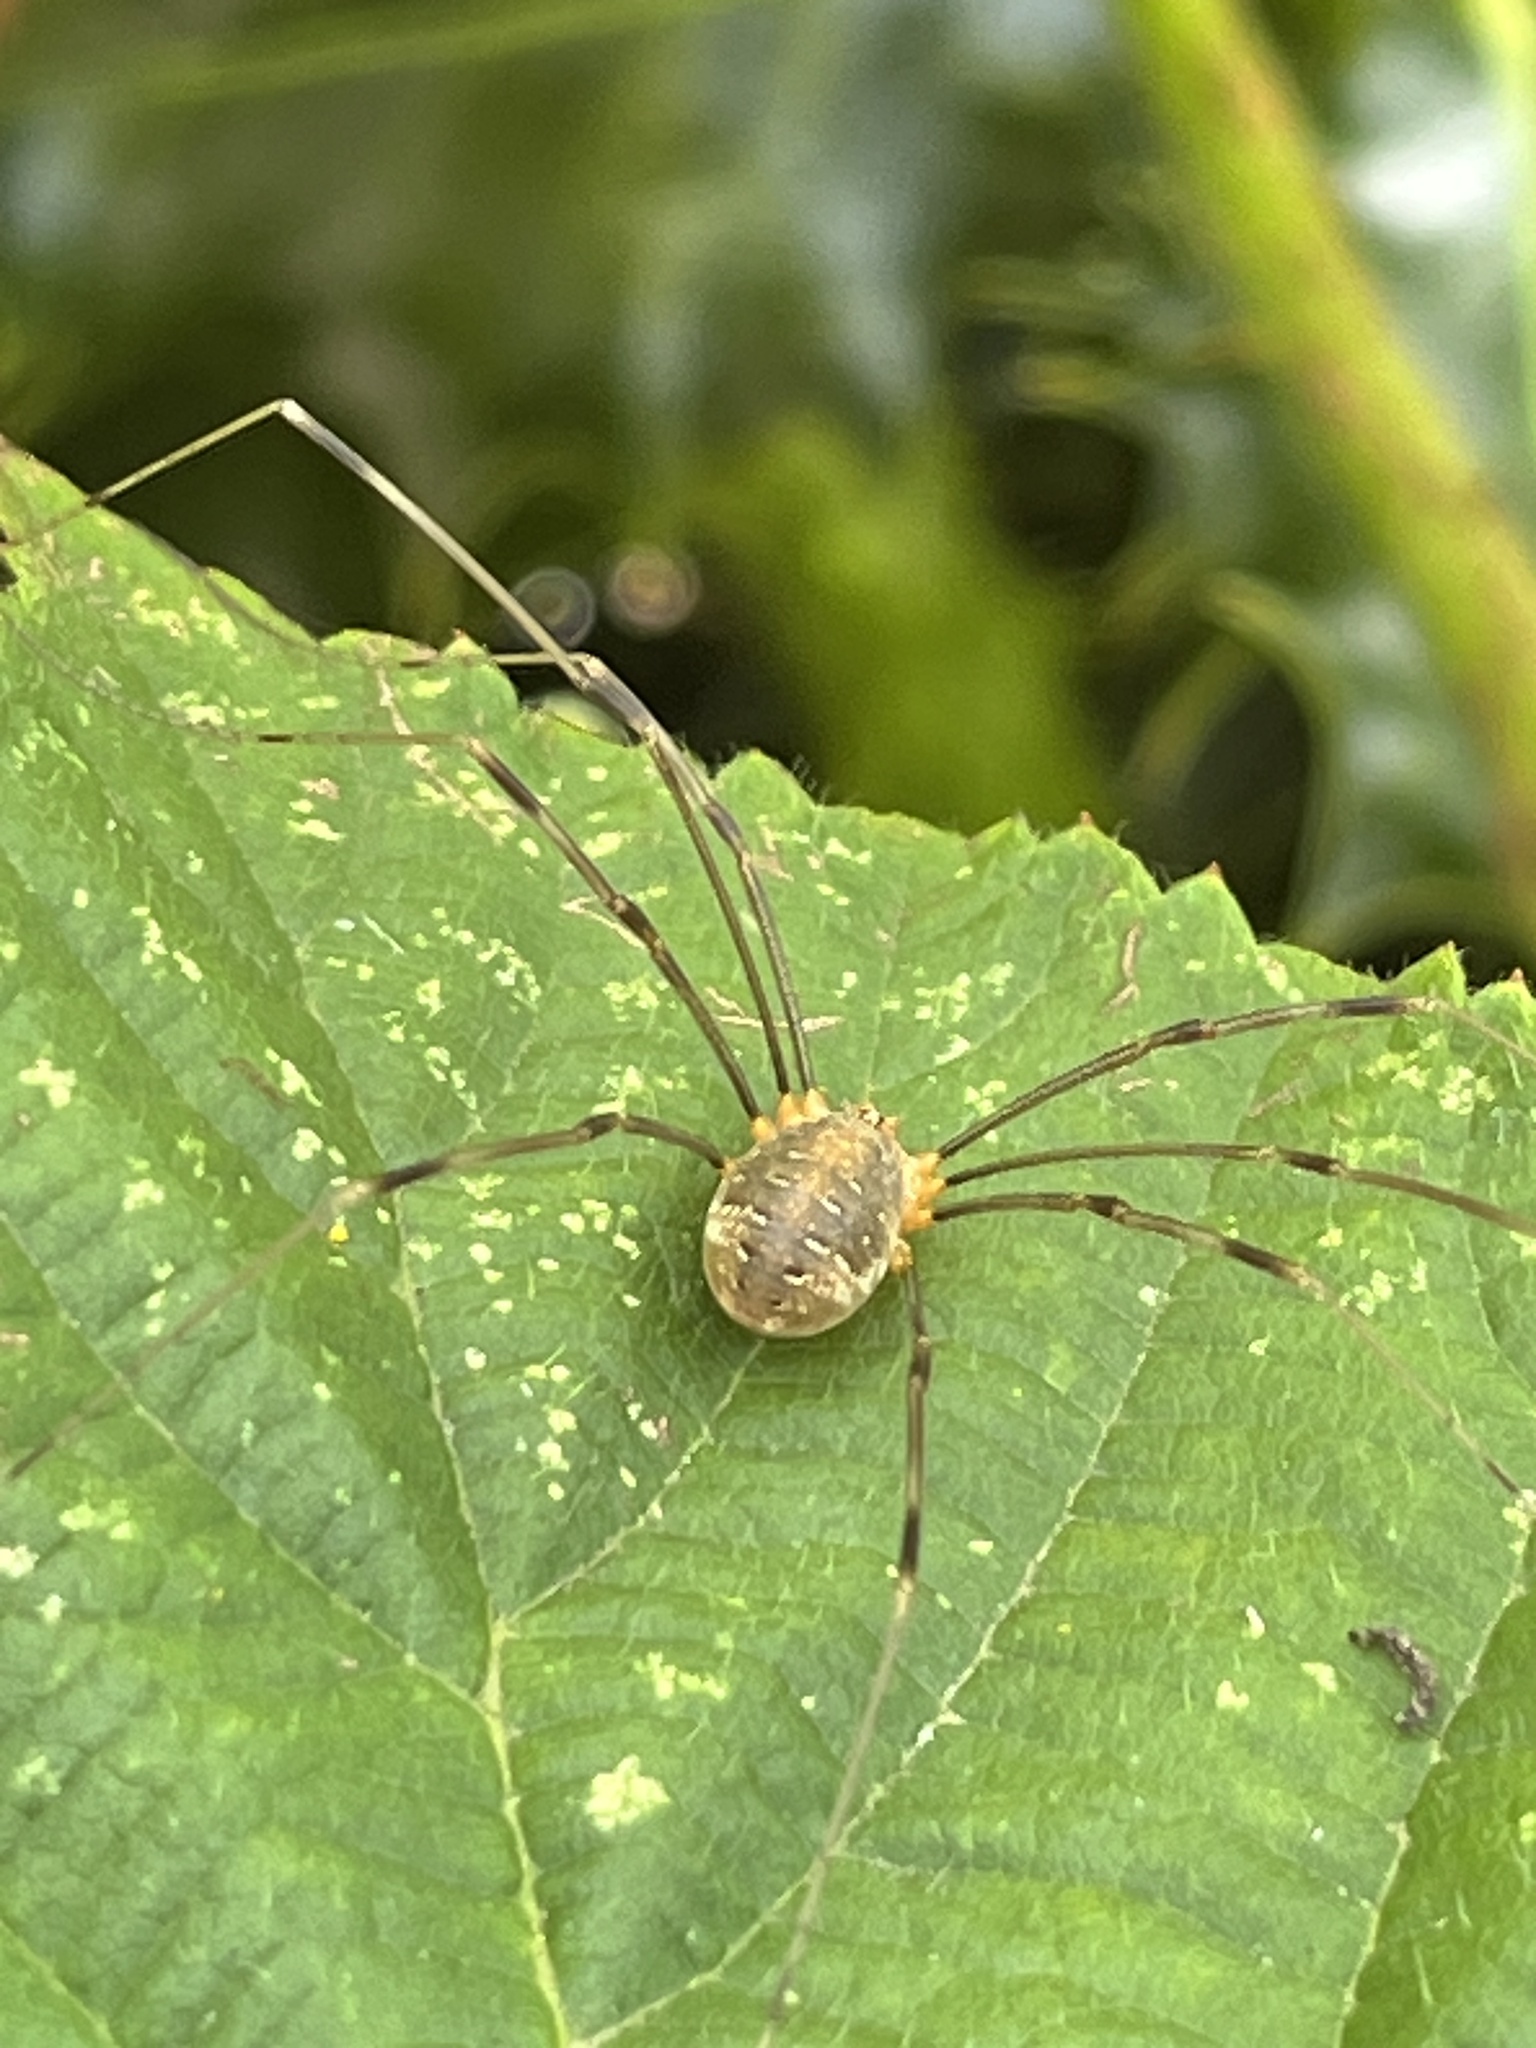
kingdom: Animalia
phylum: Arthropoda
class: Arachnida
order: Opiliones
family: Phalangiidae
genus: Opilio
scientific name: Opilio canestrinii
